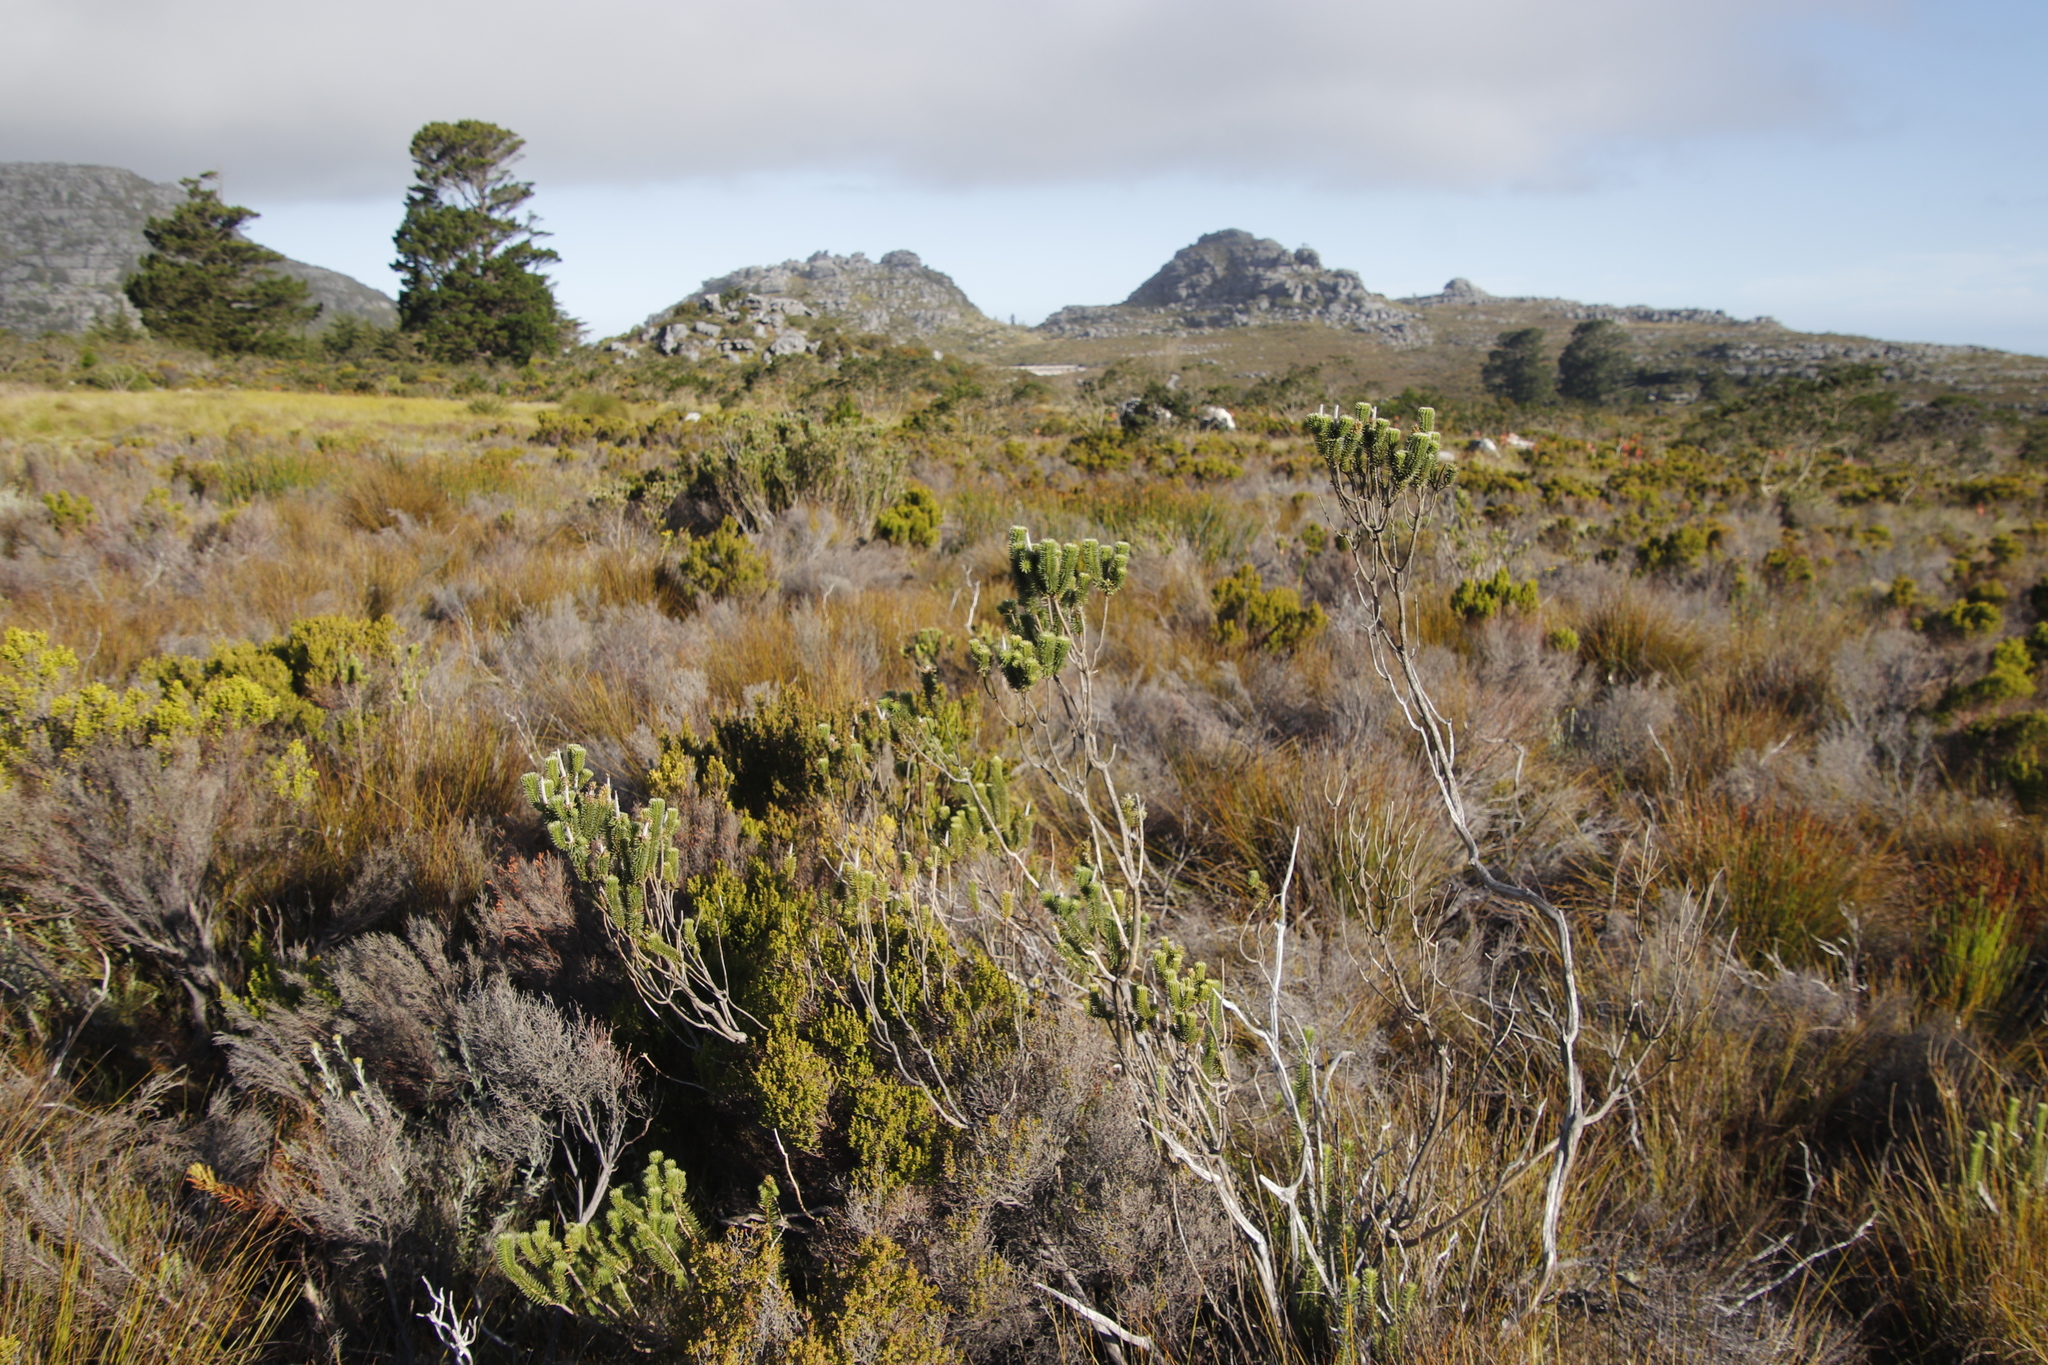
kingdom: Plantae
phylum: Tracheophyta
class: Magnoliopsida
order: Lamiales
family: Stilbaceae
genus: Stilbe
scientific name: Stilbe vestita
